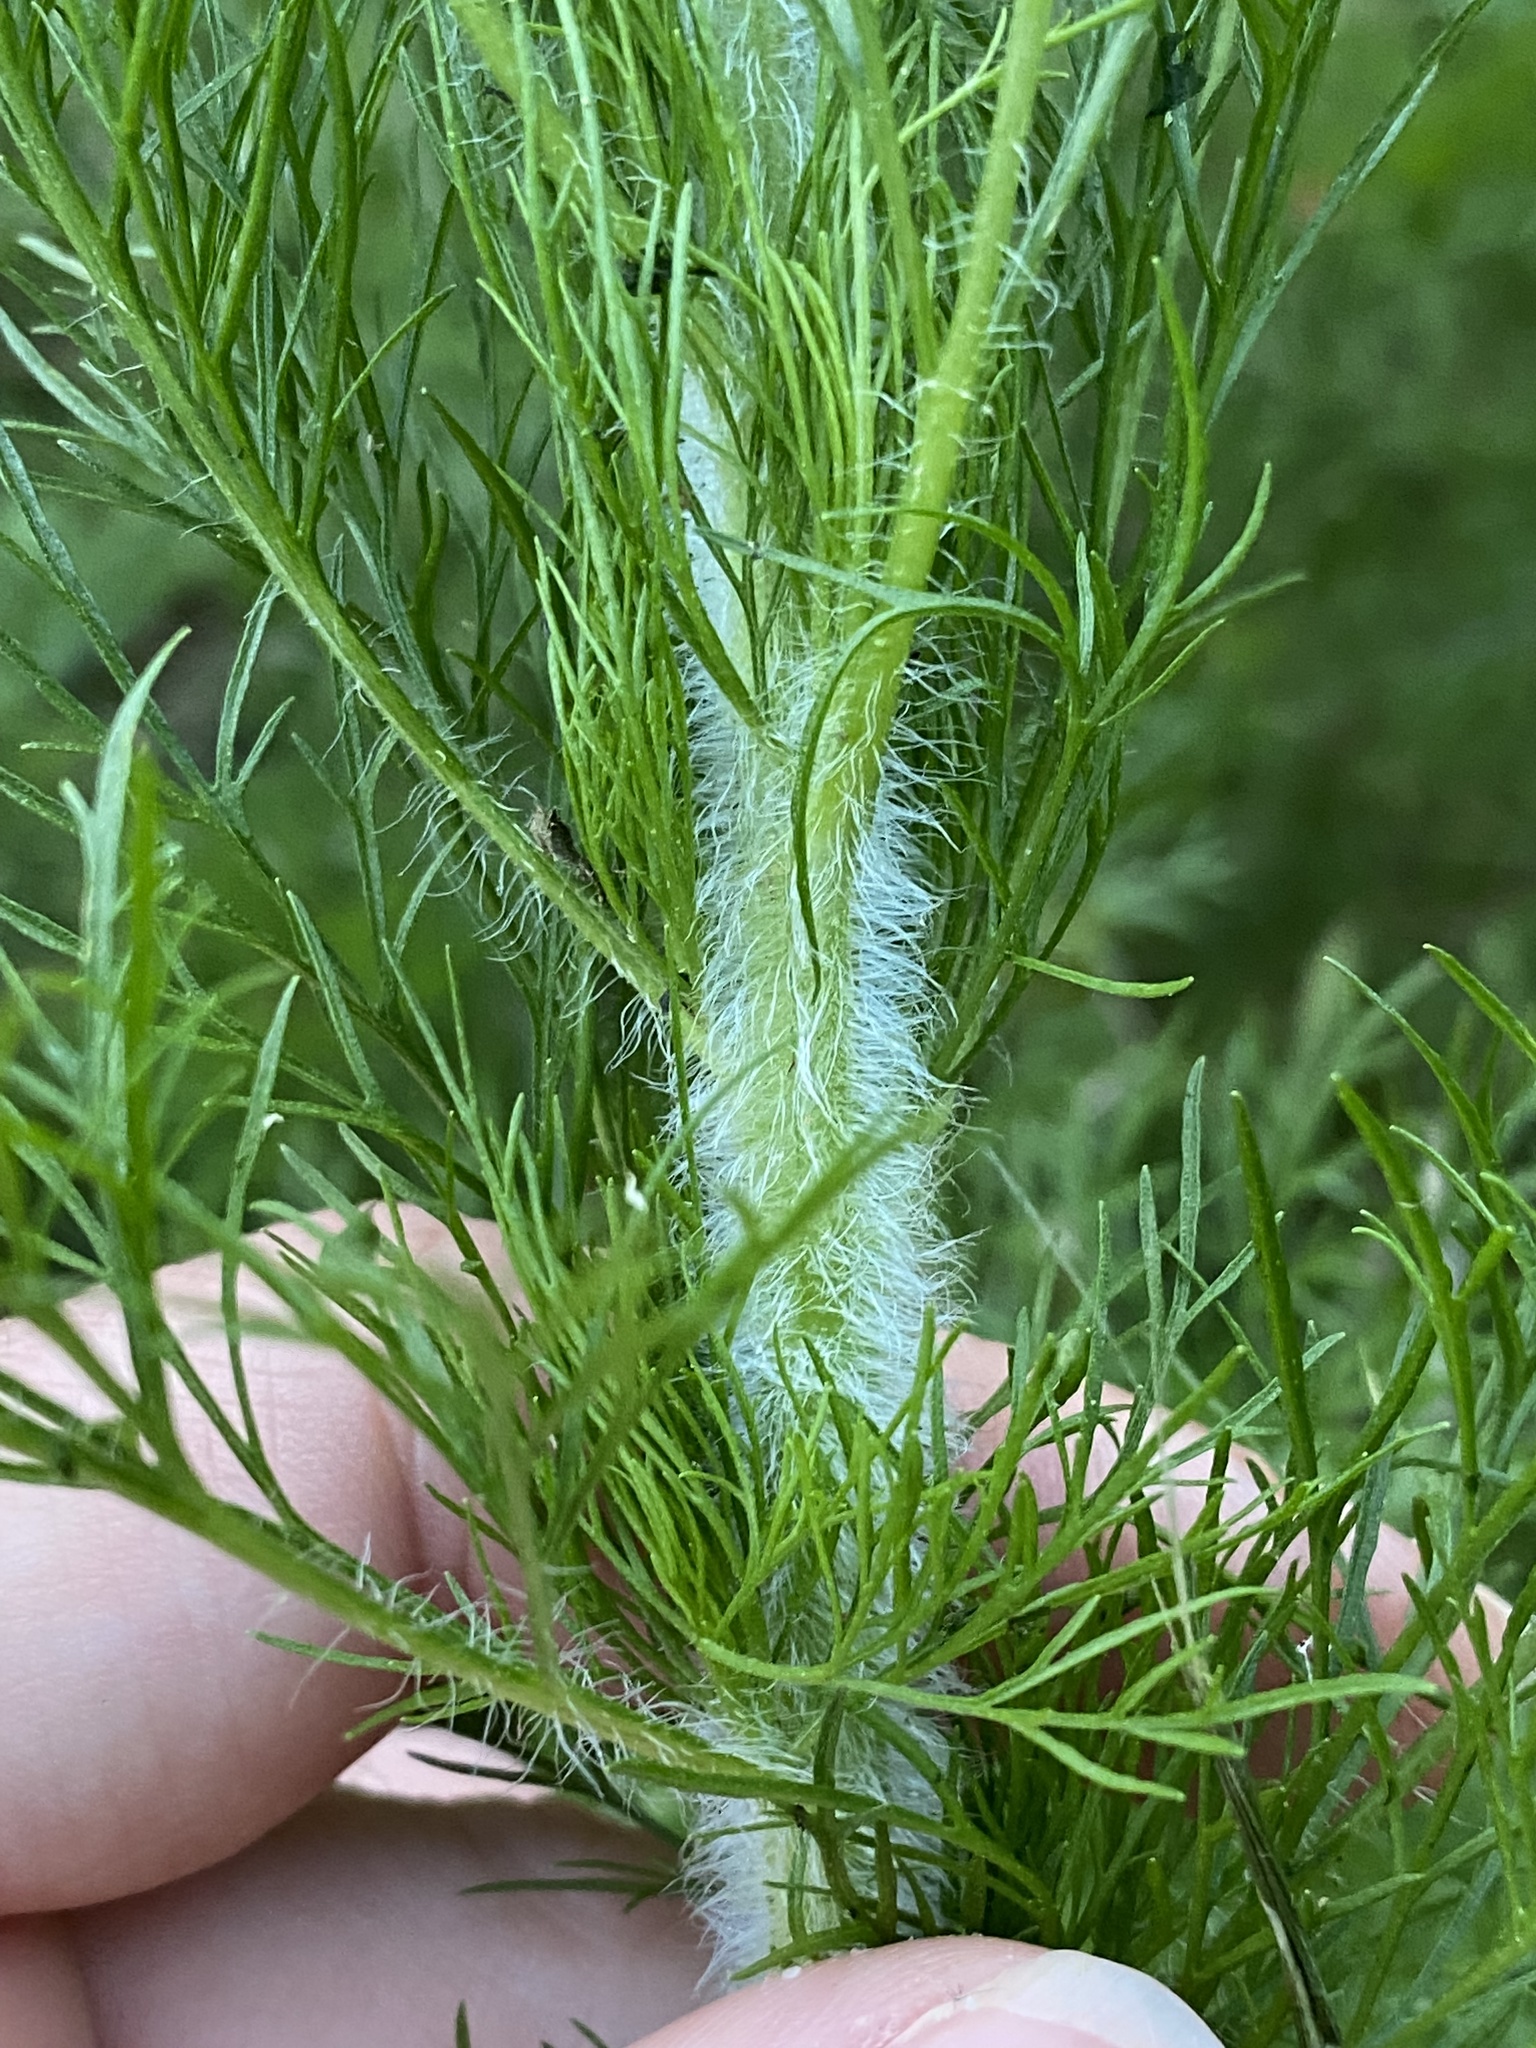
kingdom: Plantae
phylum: Tracheophyta
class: Magnoliopsida
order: Asterales
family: Asteraceae
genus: Eupatorium
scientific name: Eupatorium capillifolium
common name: Dog-fennel
